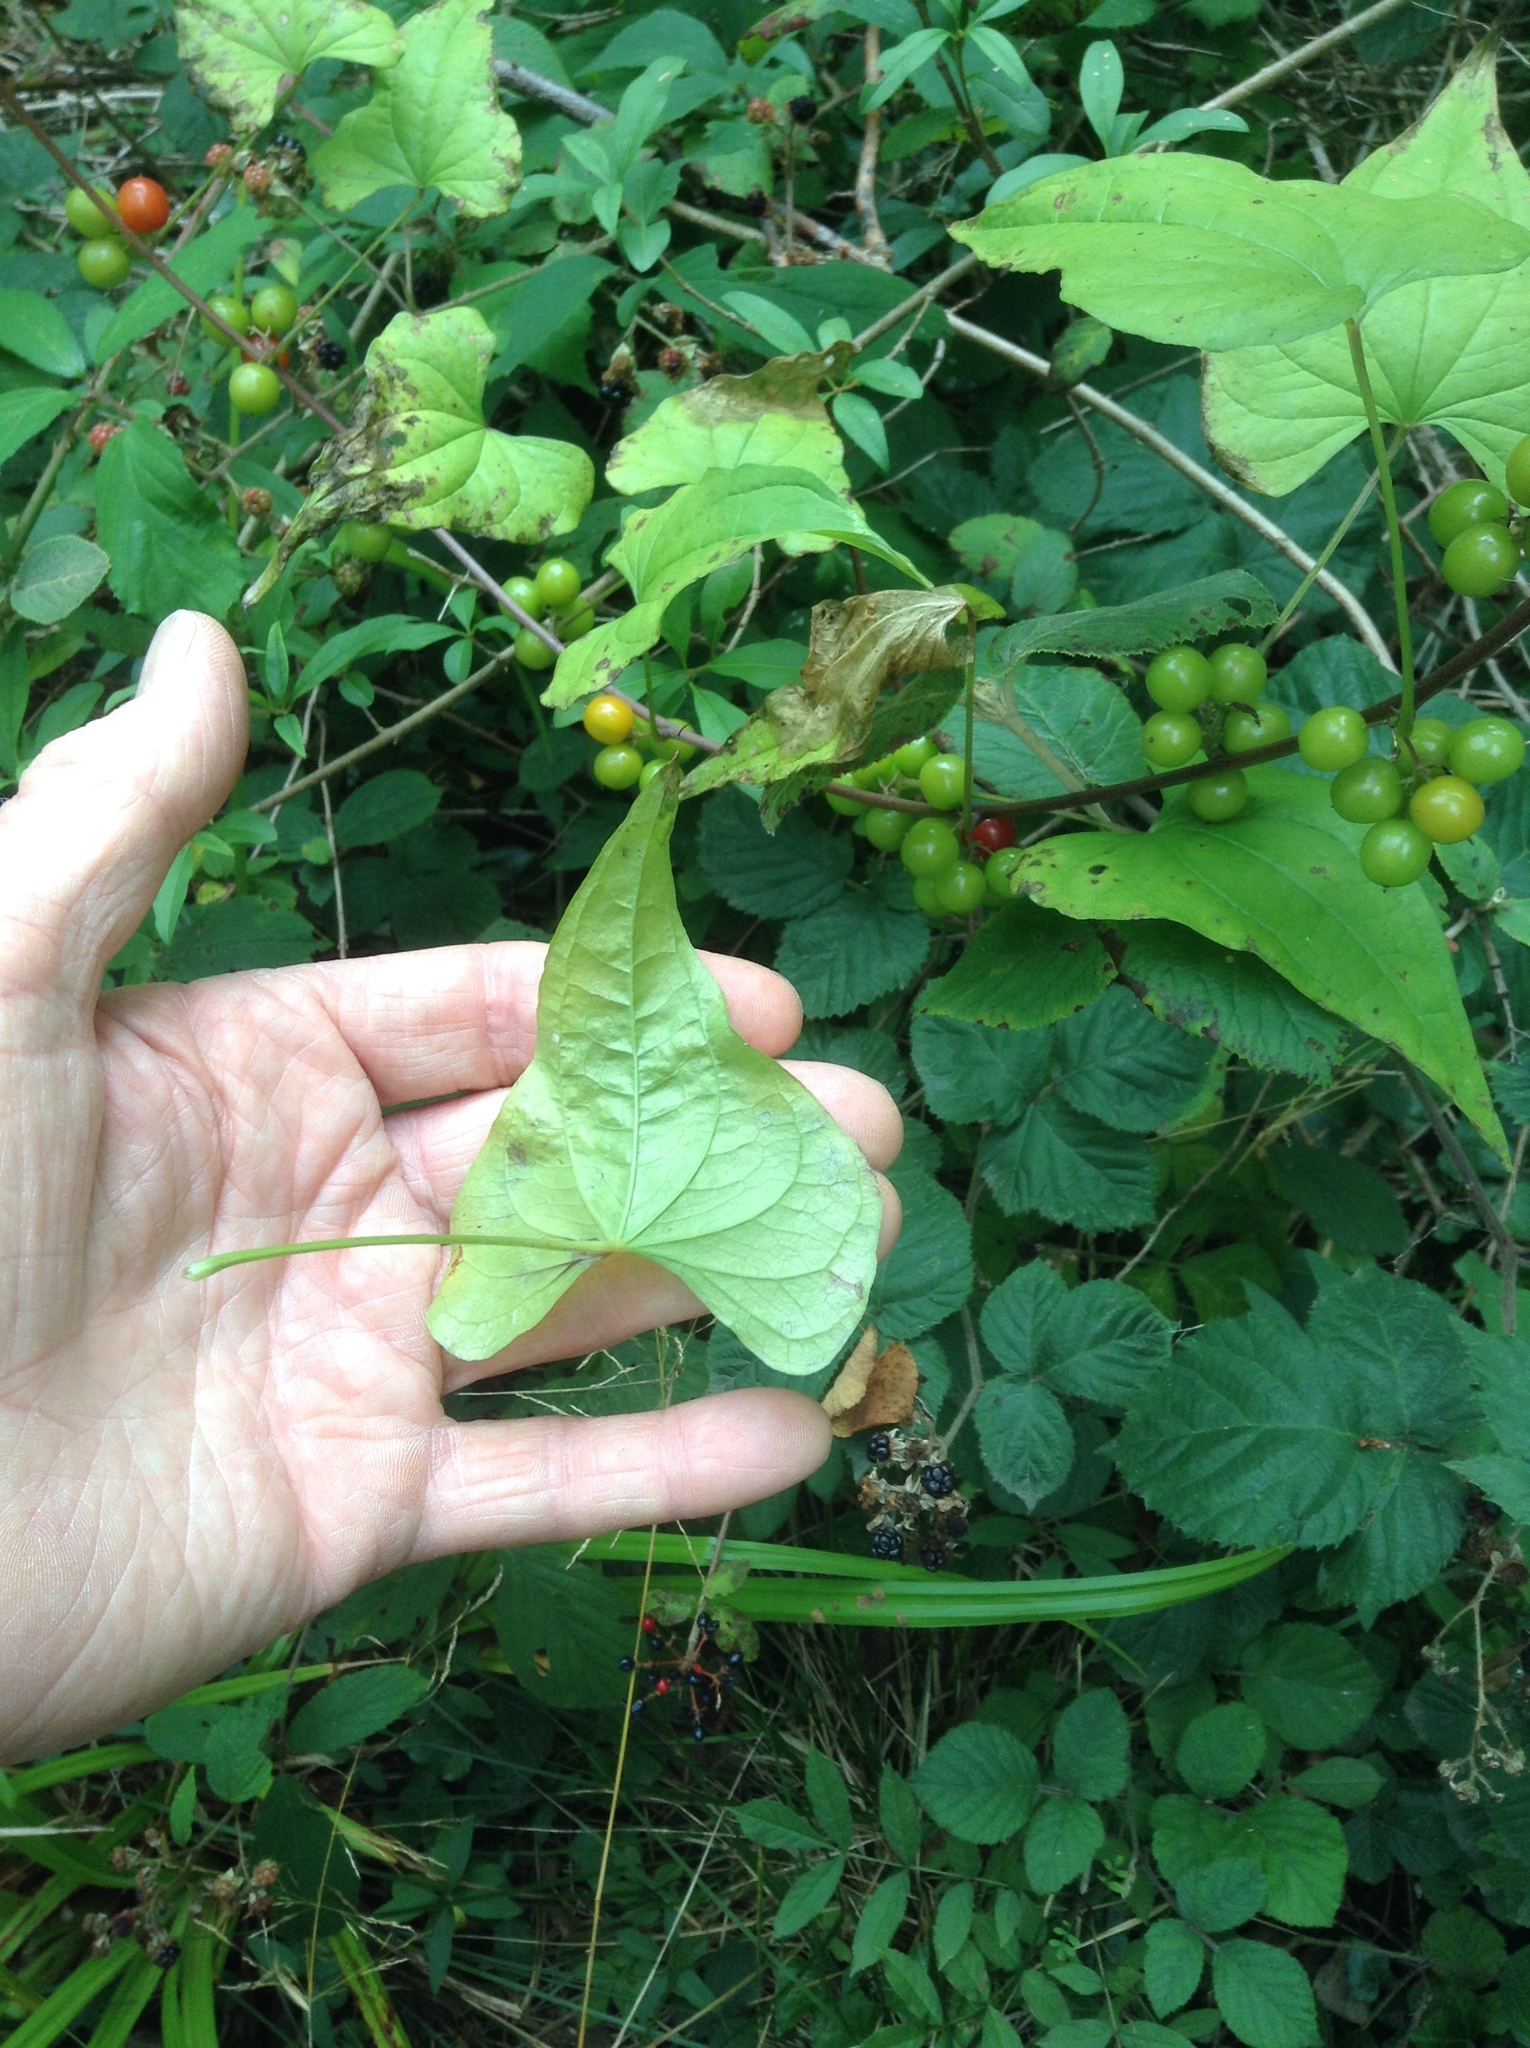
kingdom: Plantae
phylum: Tracheophyta
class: Liliopsida
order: Dioscoreales
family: Dioscoreaceae
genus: Dioscorea
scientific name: Dioscorea communis
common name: Black-bindweed
